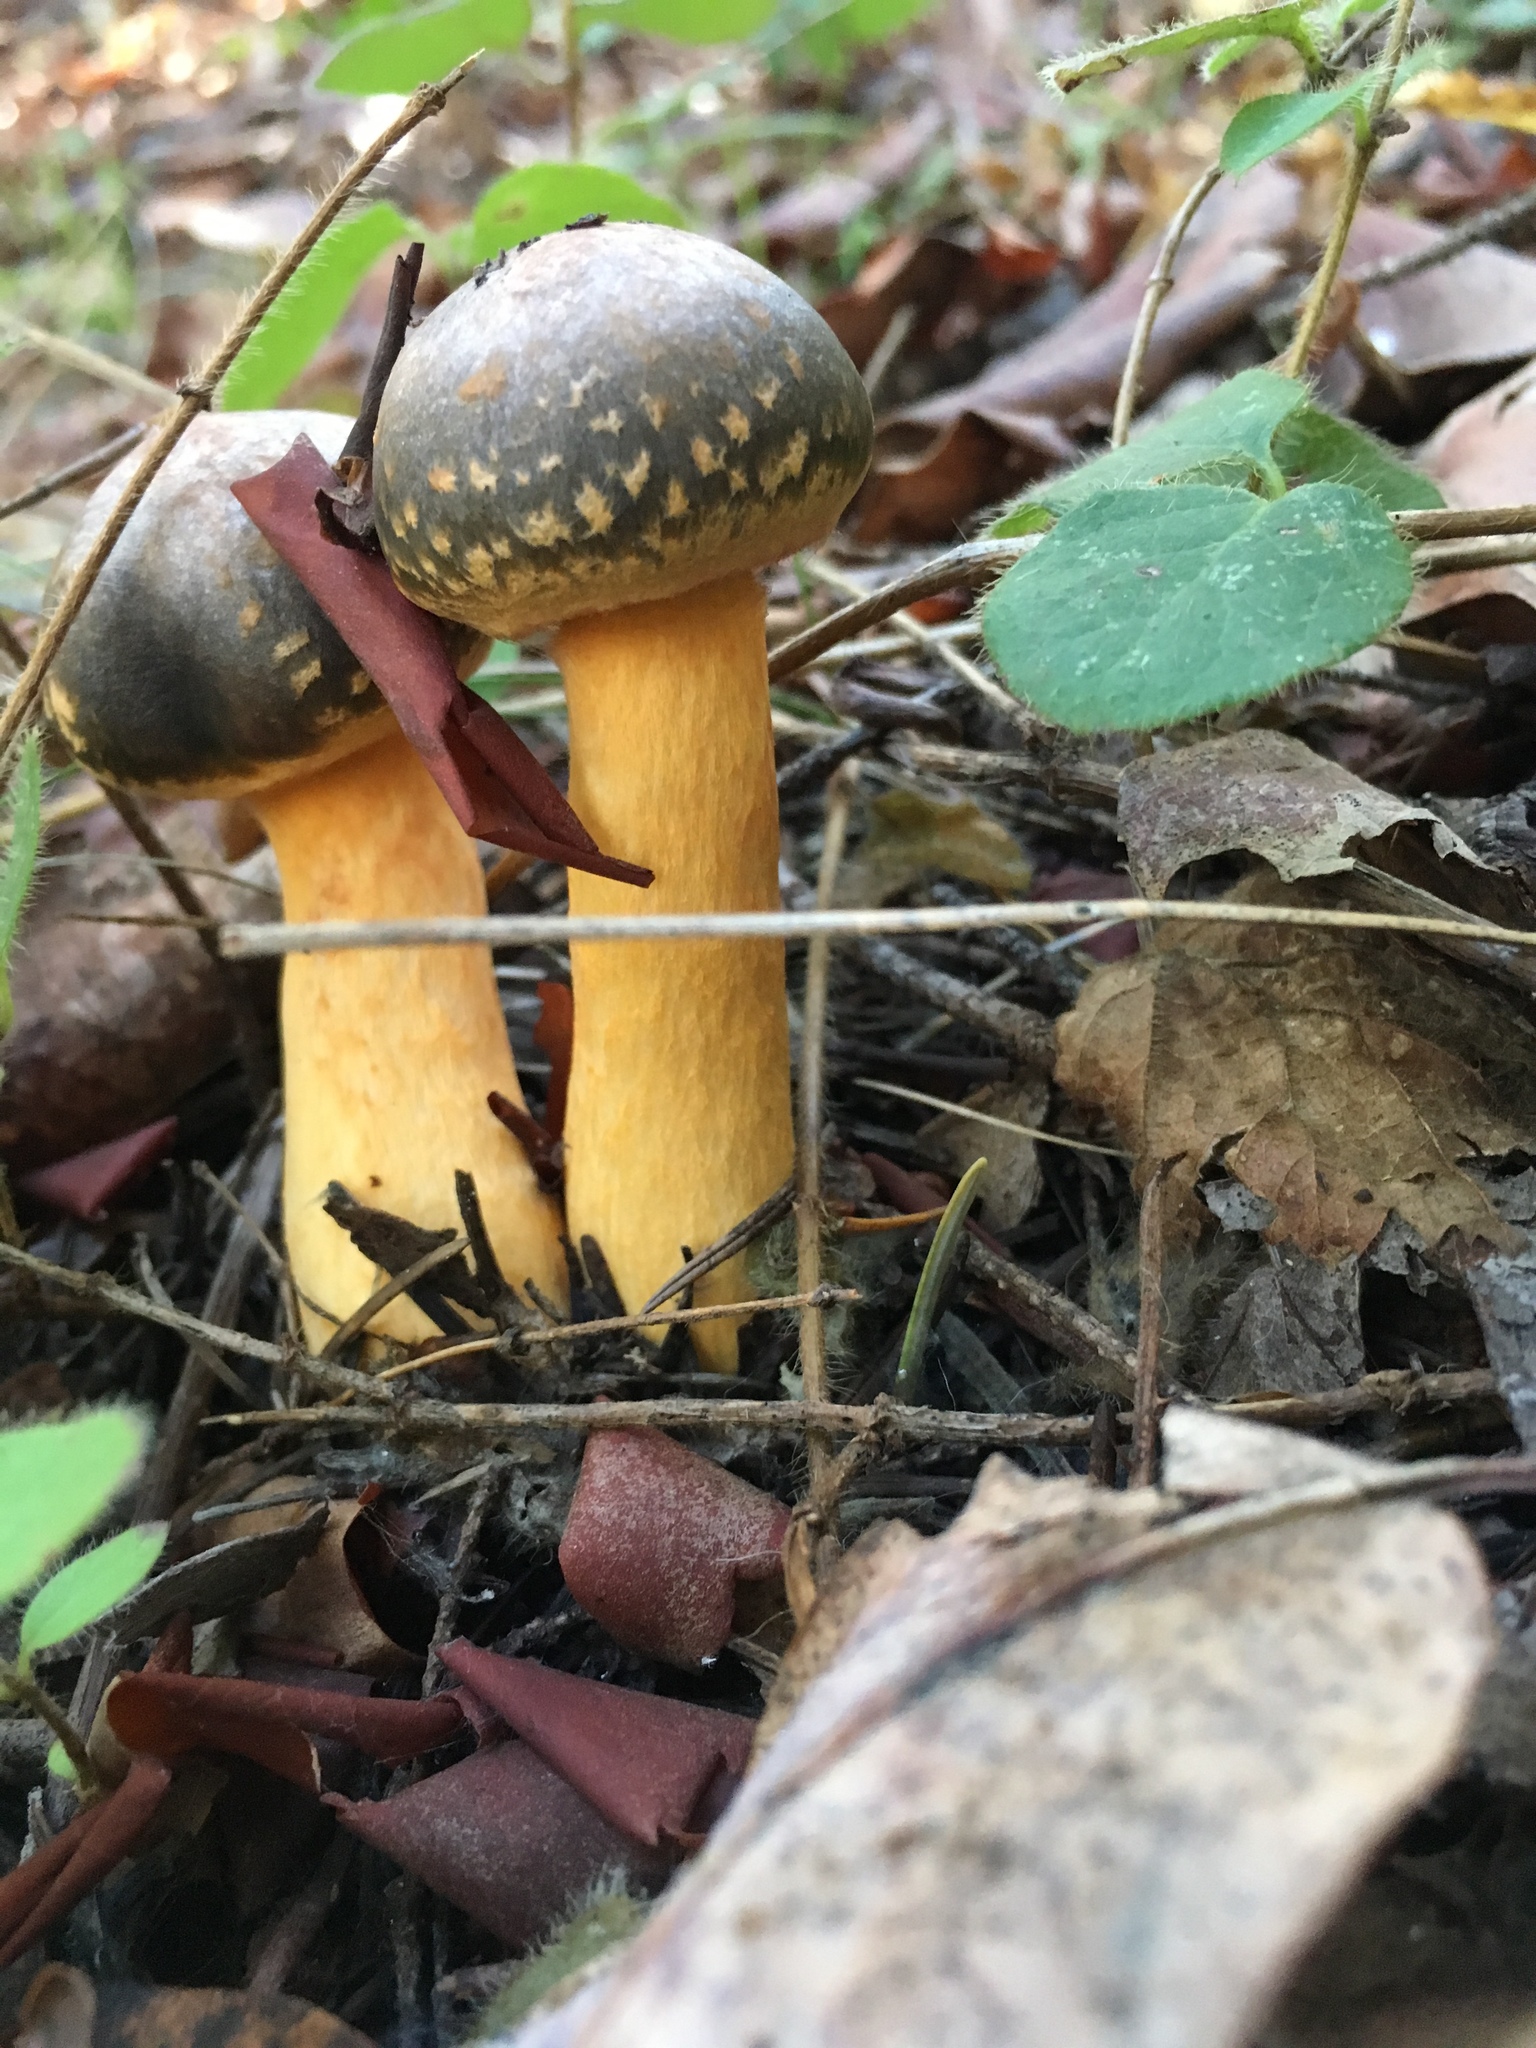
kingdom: Fungi
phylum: Basidiomycota
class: Agaricomycetes
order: Boletales
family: Gomphidiaceae
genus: Chroogomphus
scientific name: Chroogomphus vinicolor
